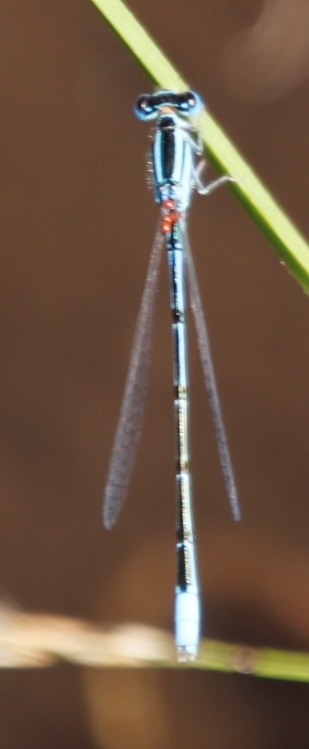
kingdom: Animalia
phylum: Arthropoda
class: Insecta
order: Odonata
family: Coenagrionidae
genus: Africallagma
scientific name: Africallagma glaucum
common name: Swamp bluet
